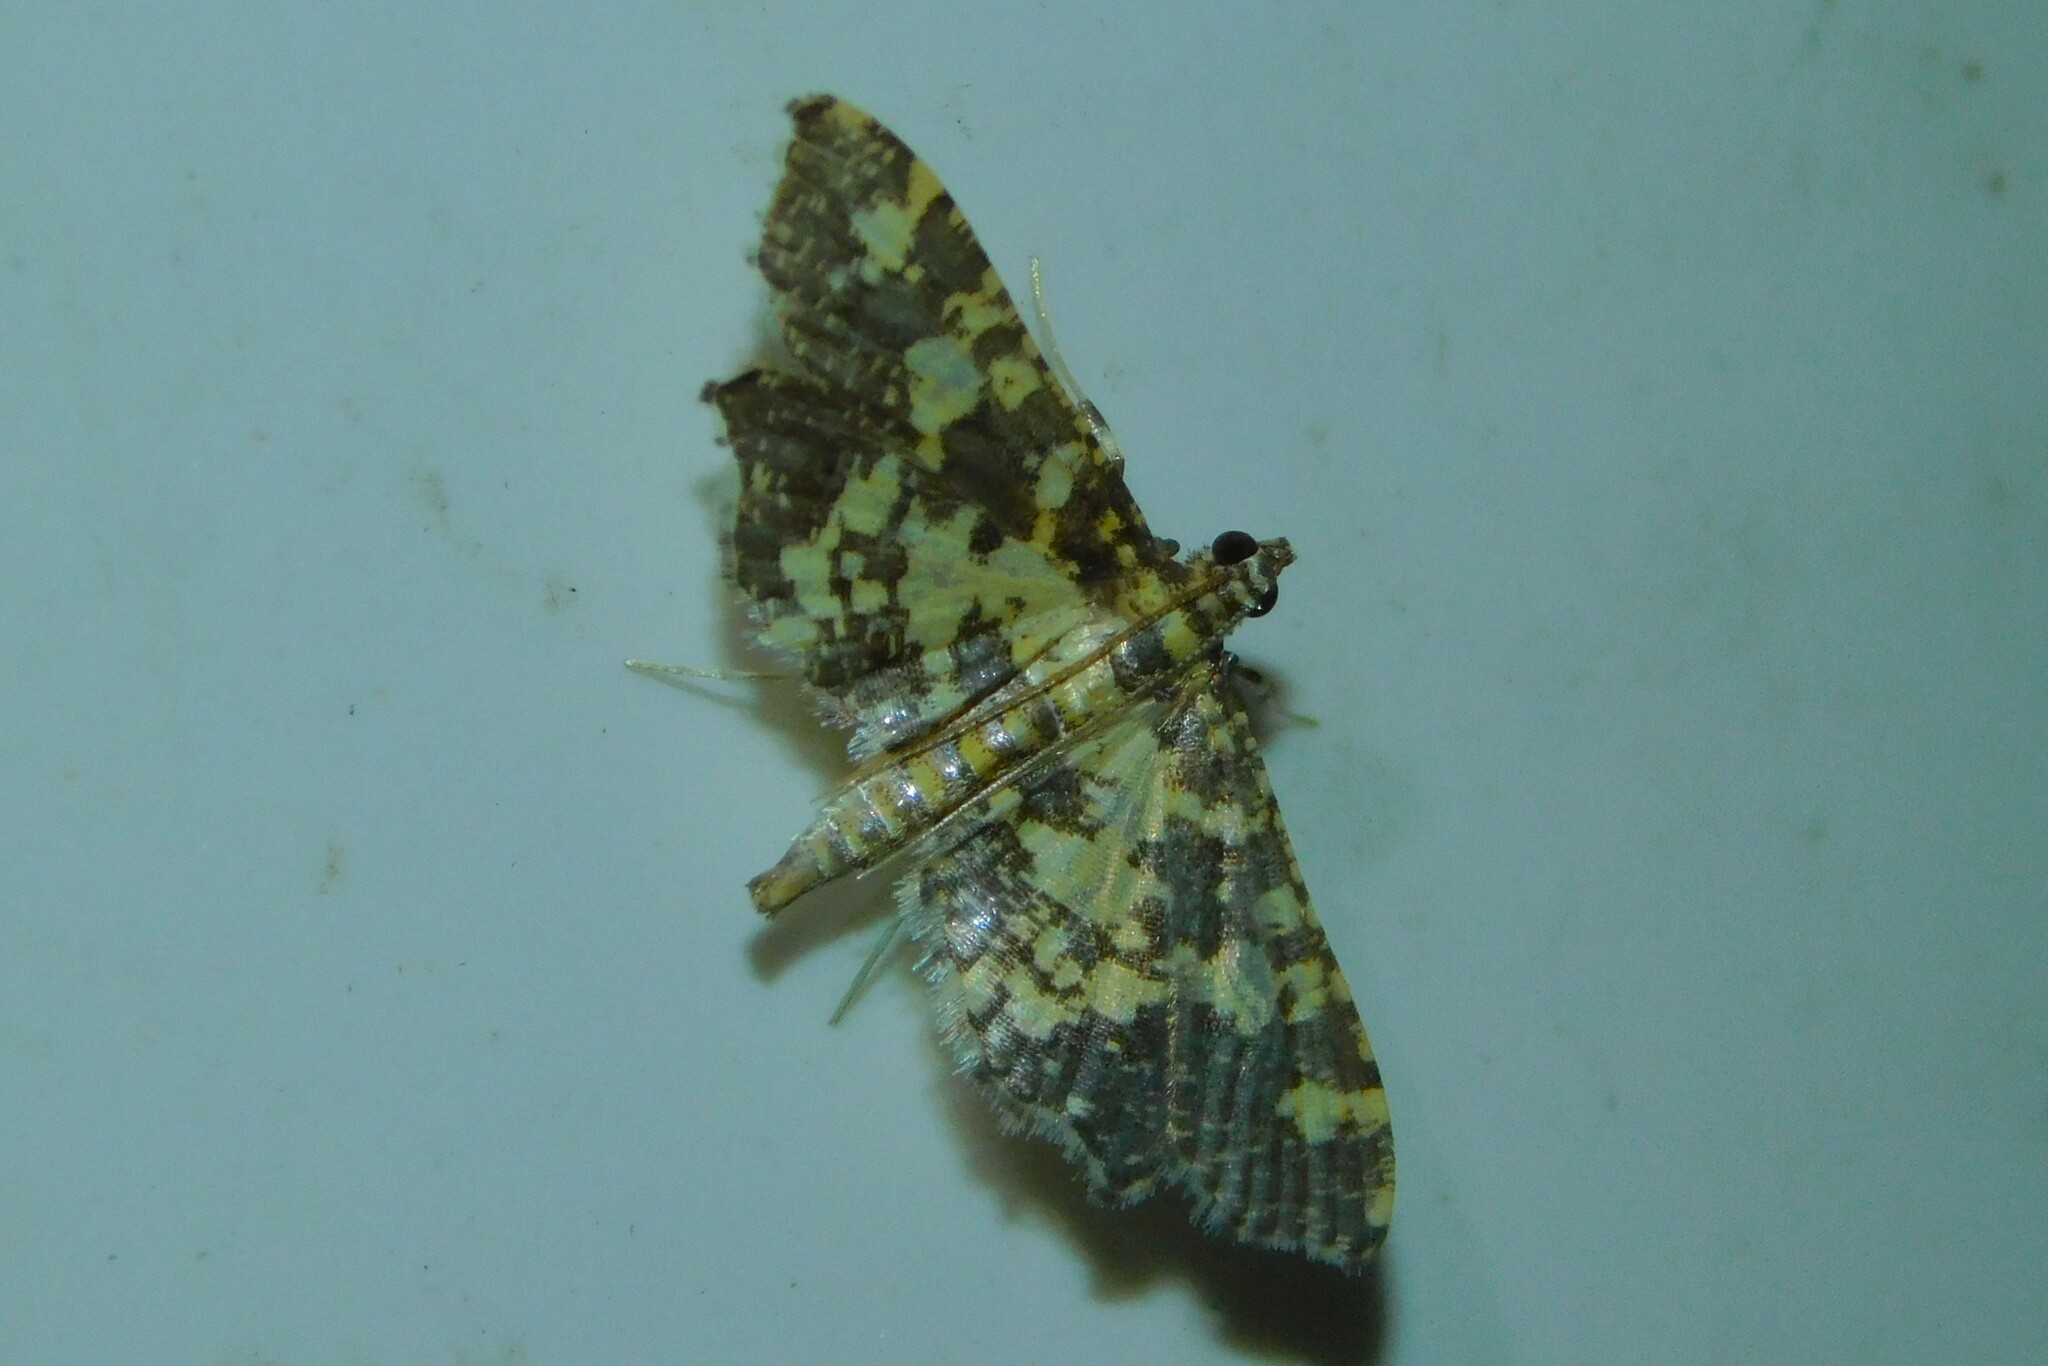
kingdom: Animalia
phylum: Arthropoda
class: Insecta
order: Lepidoptera
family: Crambidae
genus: Eurrhyparodes
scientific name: Eurrhyparodes bracteolalis
